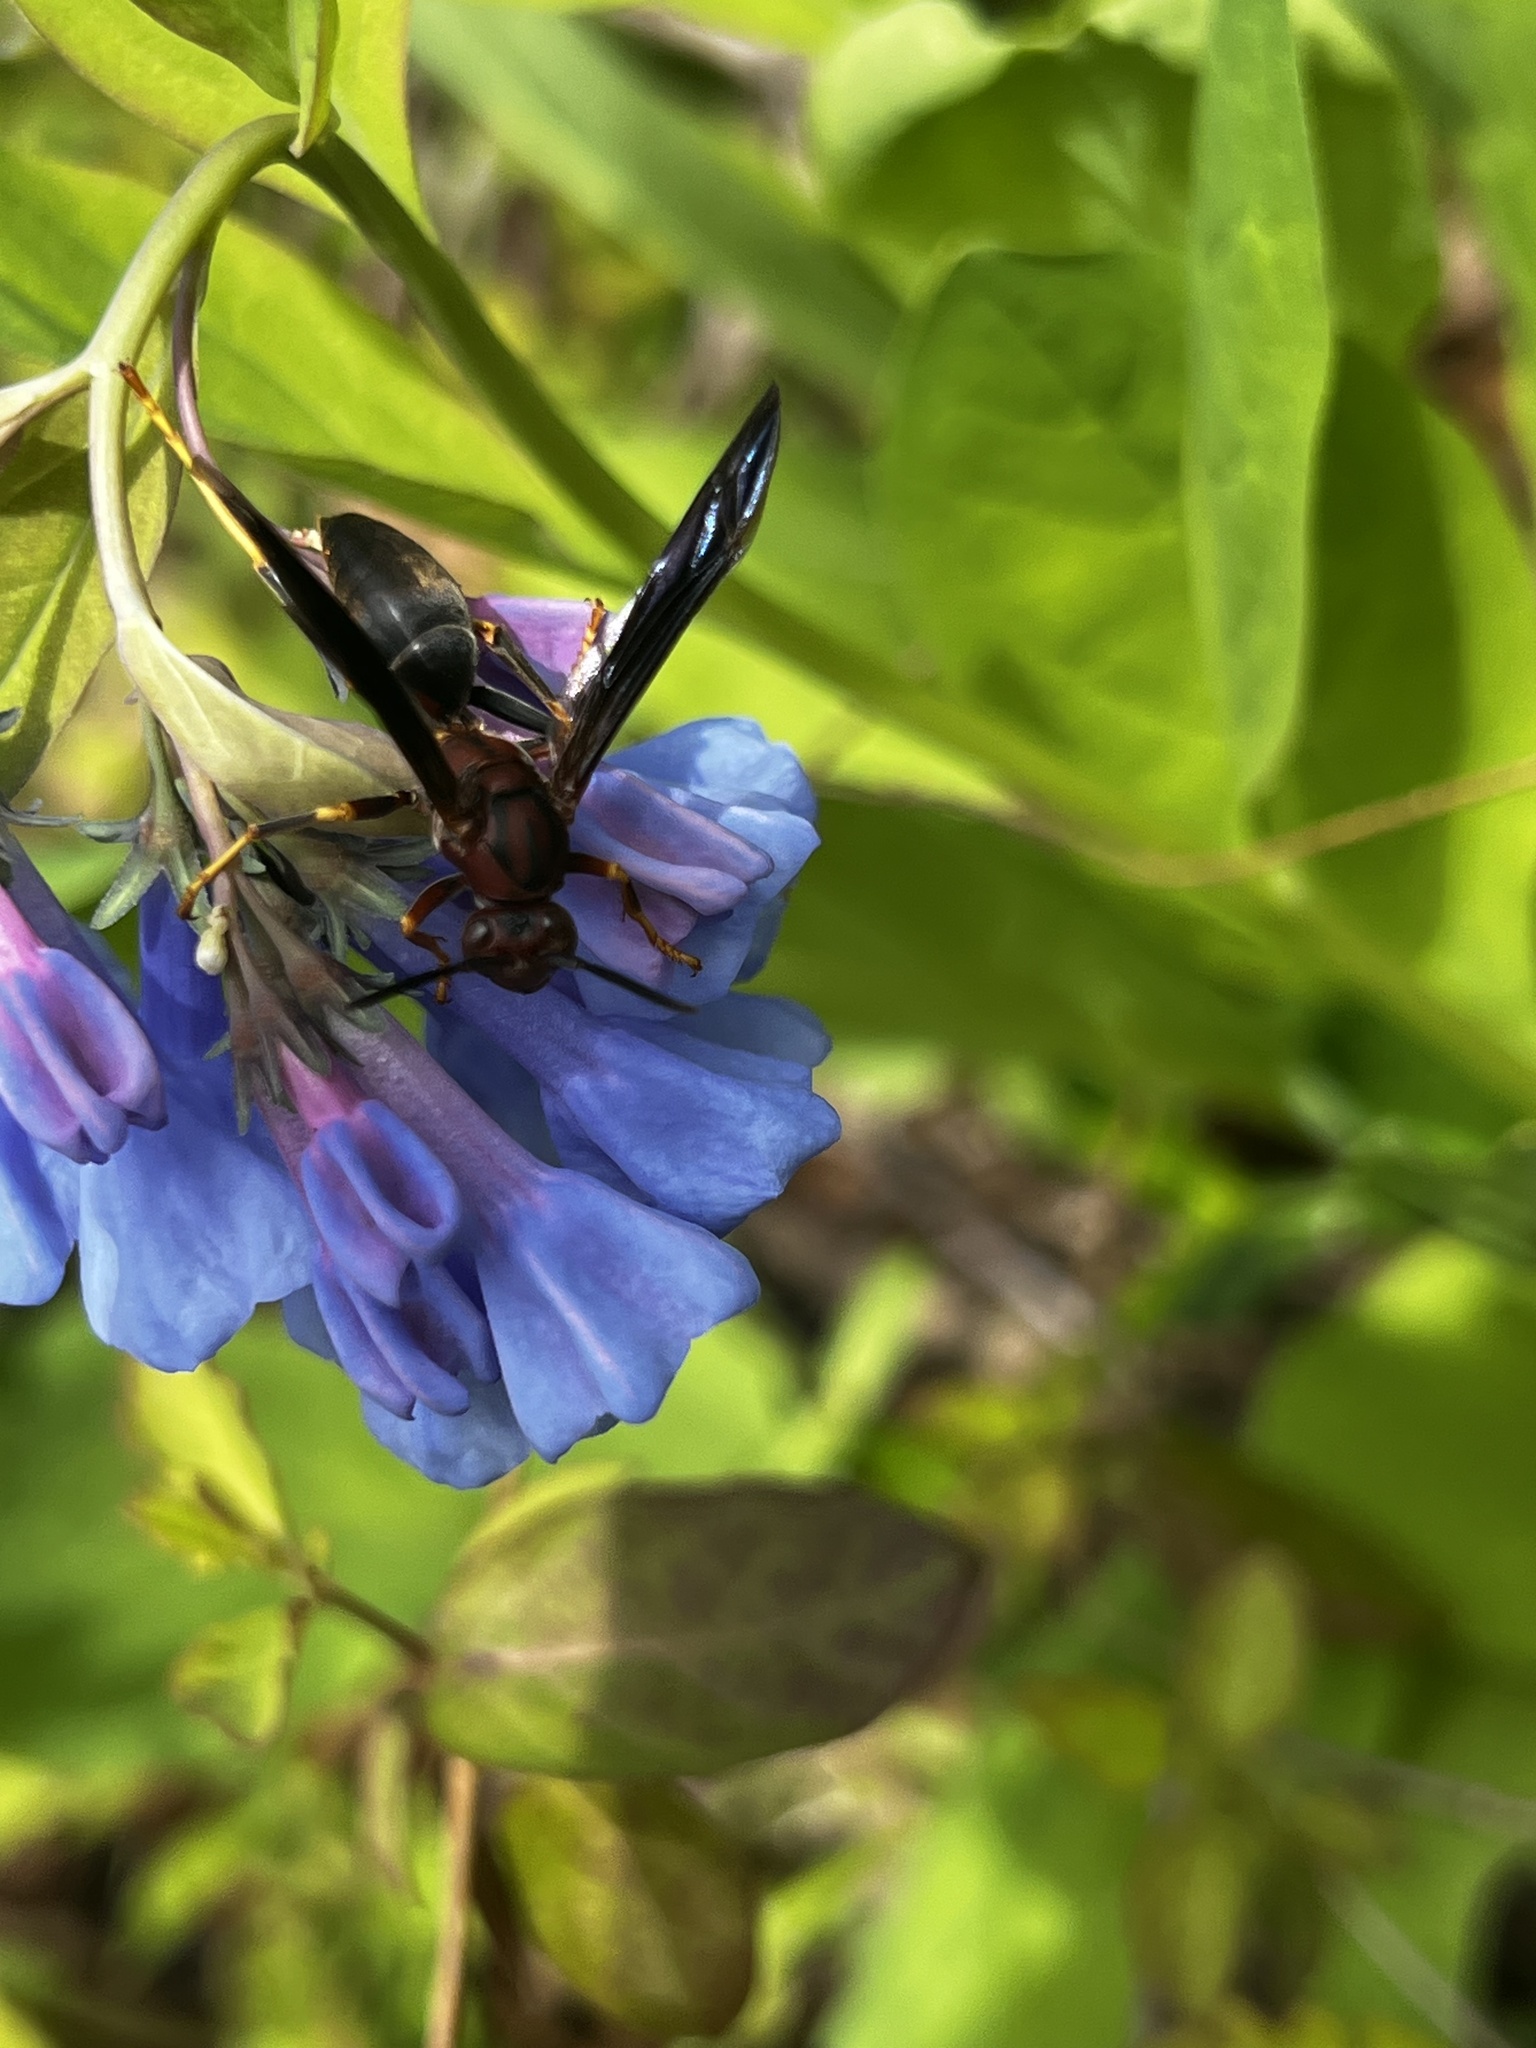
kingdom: Animalia
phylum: Arthropoda
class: Insecta
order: Hymenoptera
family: Eumenidae
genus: Polistes
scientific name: Polistes metricus
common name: Metric paper wasp
